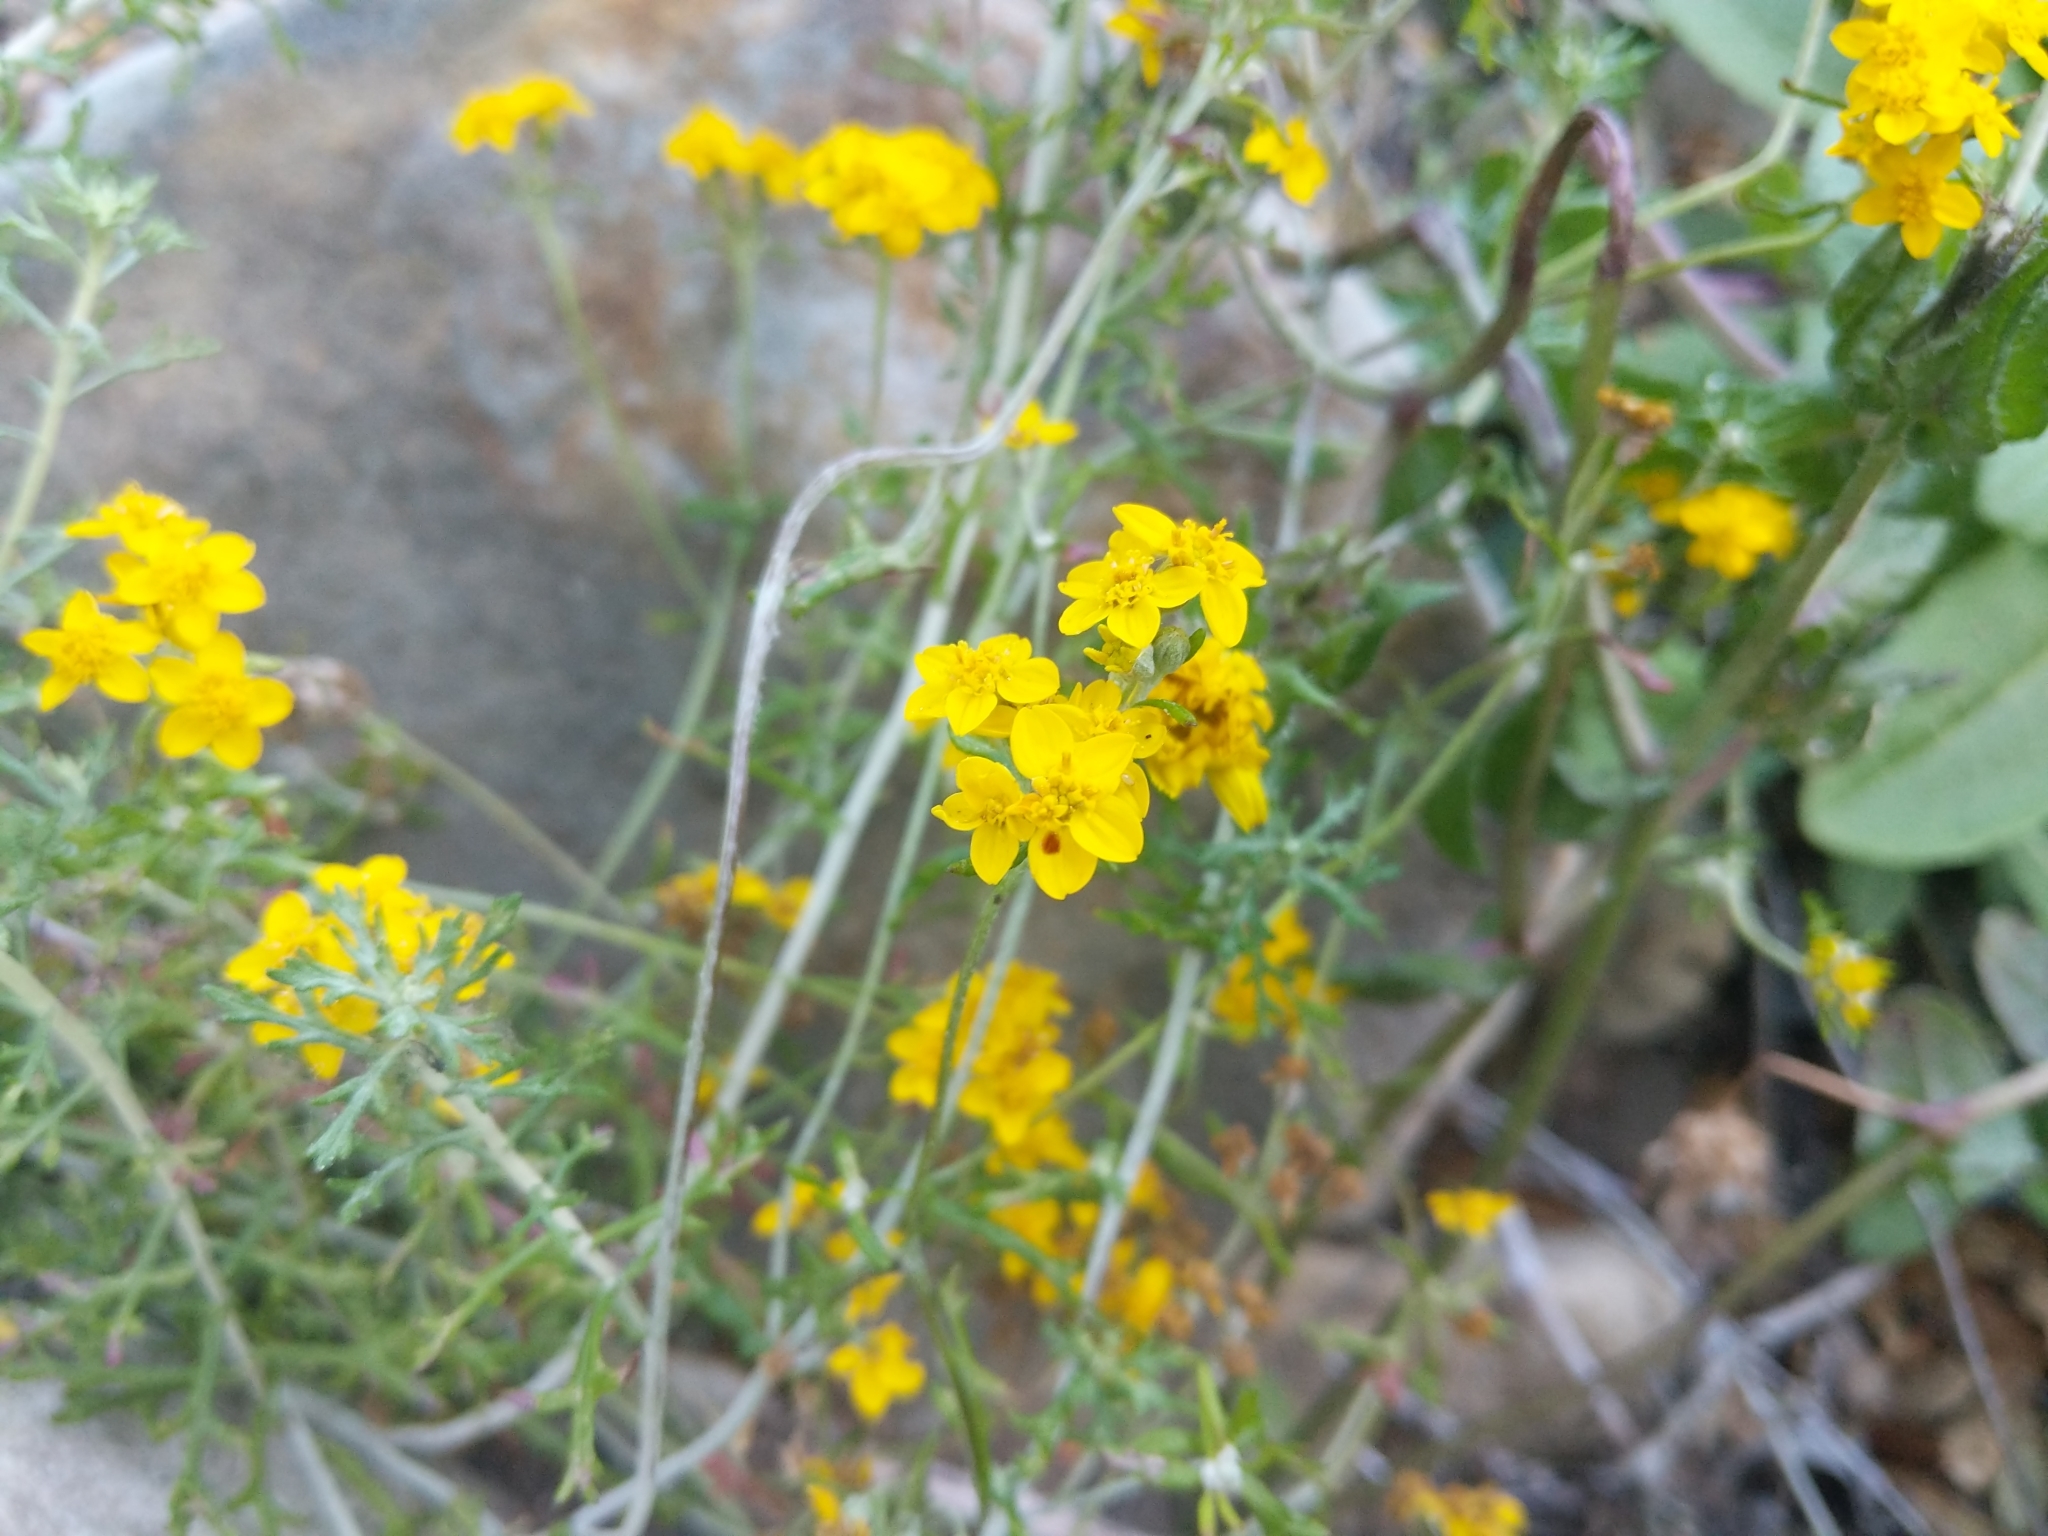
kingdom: Plantae
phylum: Tracheophyta
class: Magnoliopsida
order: Asterales
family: Asteraceae
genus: Eriophyllum
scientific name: Eriophyllum confertiflorum
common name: Golden-yarrow
